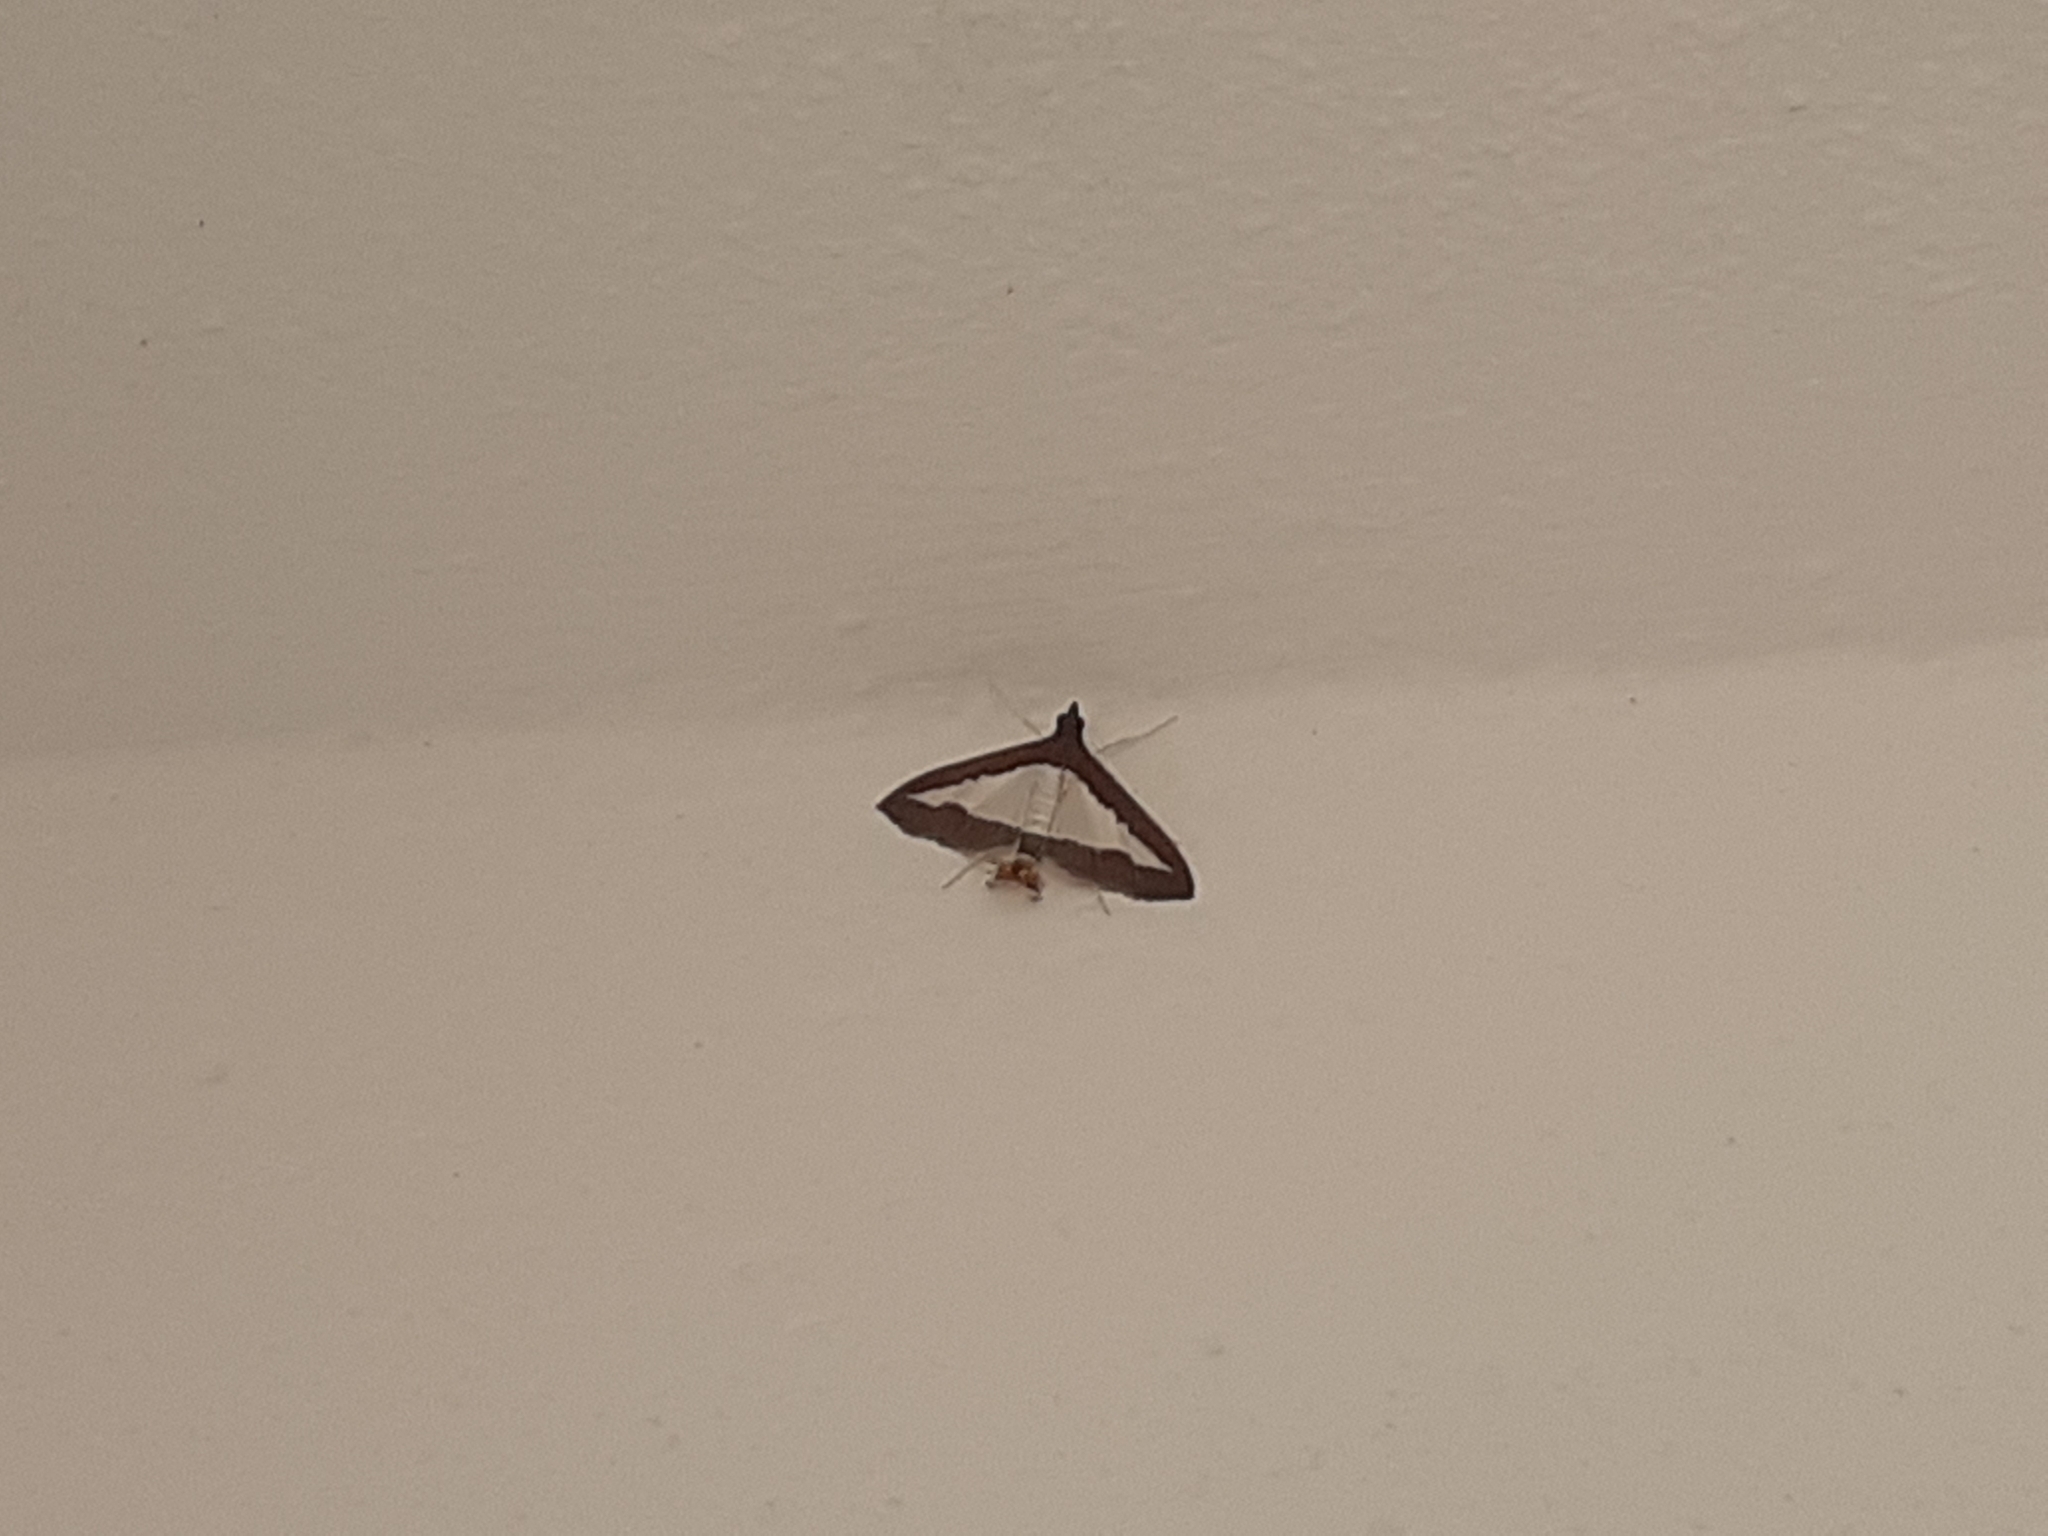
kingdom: Animalia
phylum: Arthropoda
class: Insecta
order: Lepidoptera
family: Crambidae
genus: Diaphania
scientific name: Diaphania indica
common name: Cucumber moth
